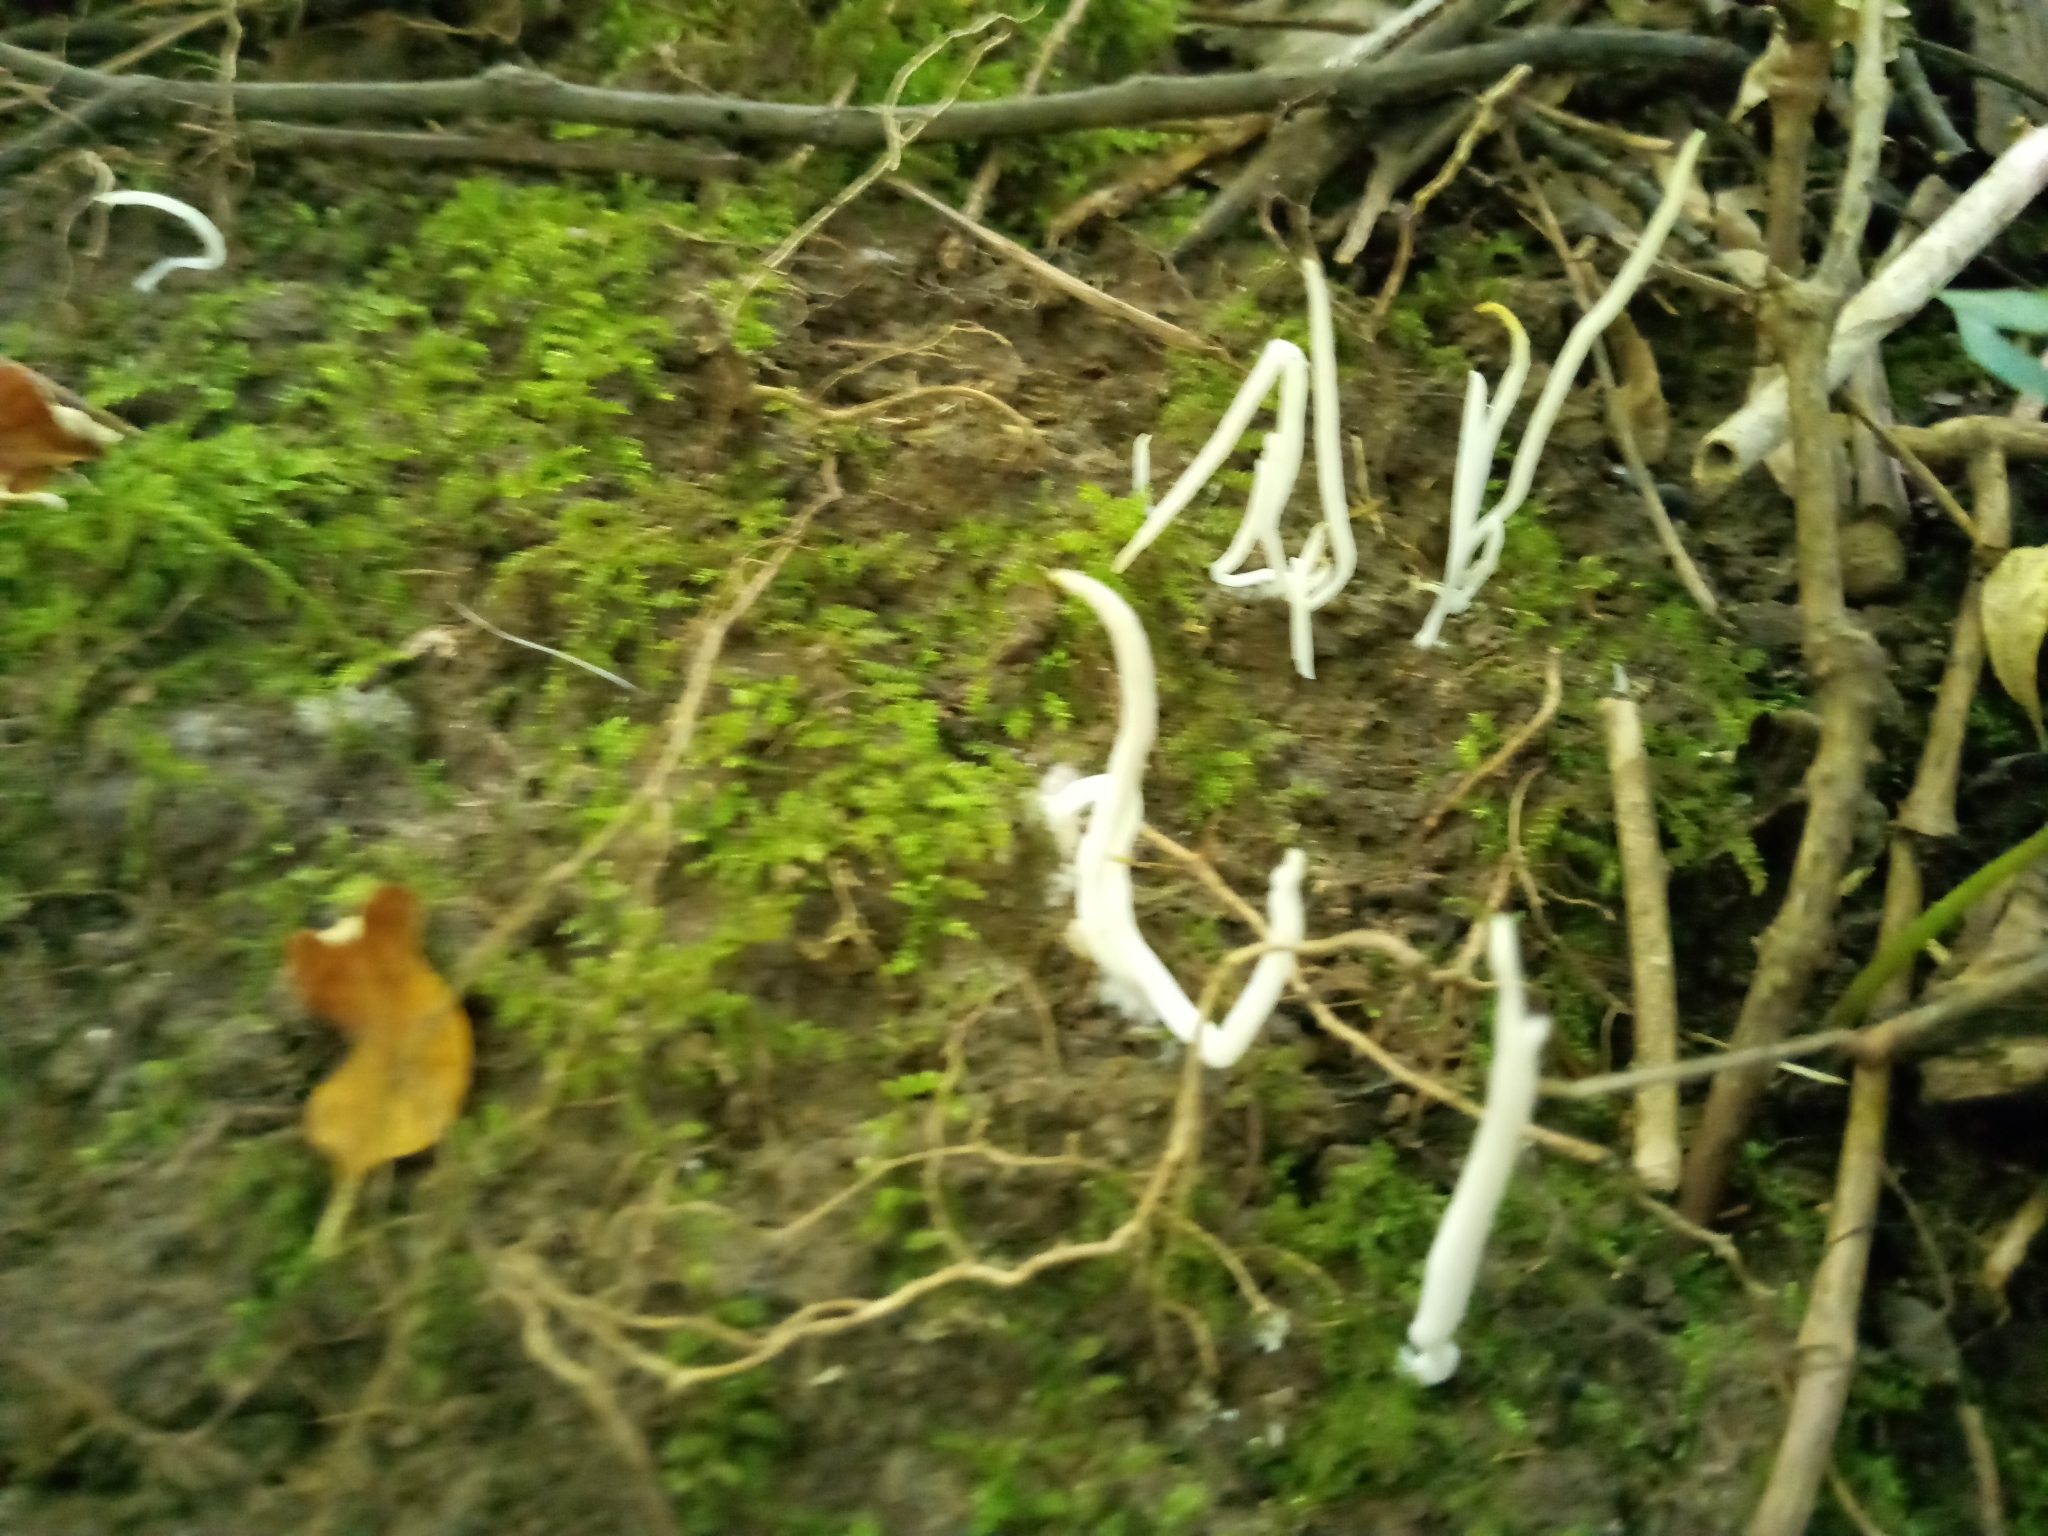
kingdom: Fungi
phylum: Basidiomycota
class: Agaricomycetes
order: Agaricales
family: Clavariaceae
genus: Clavaria
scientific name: Clavaria fragilis
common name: White spindles
